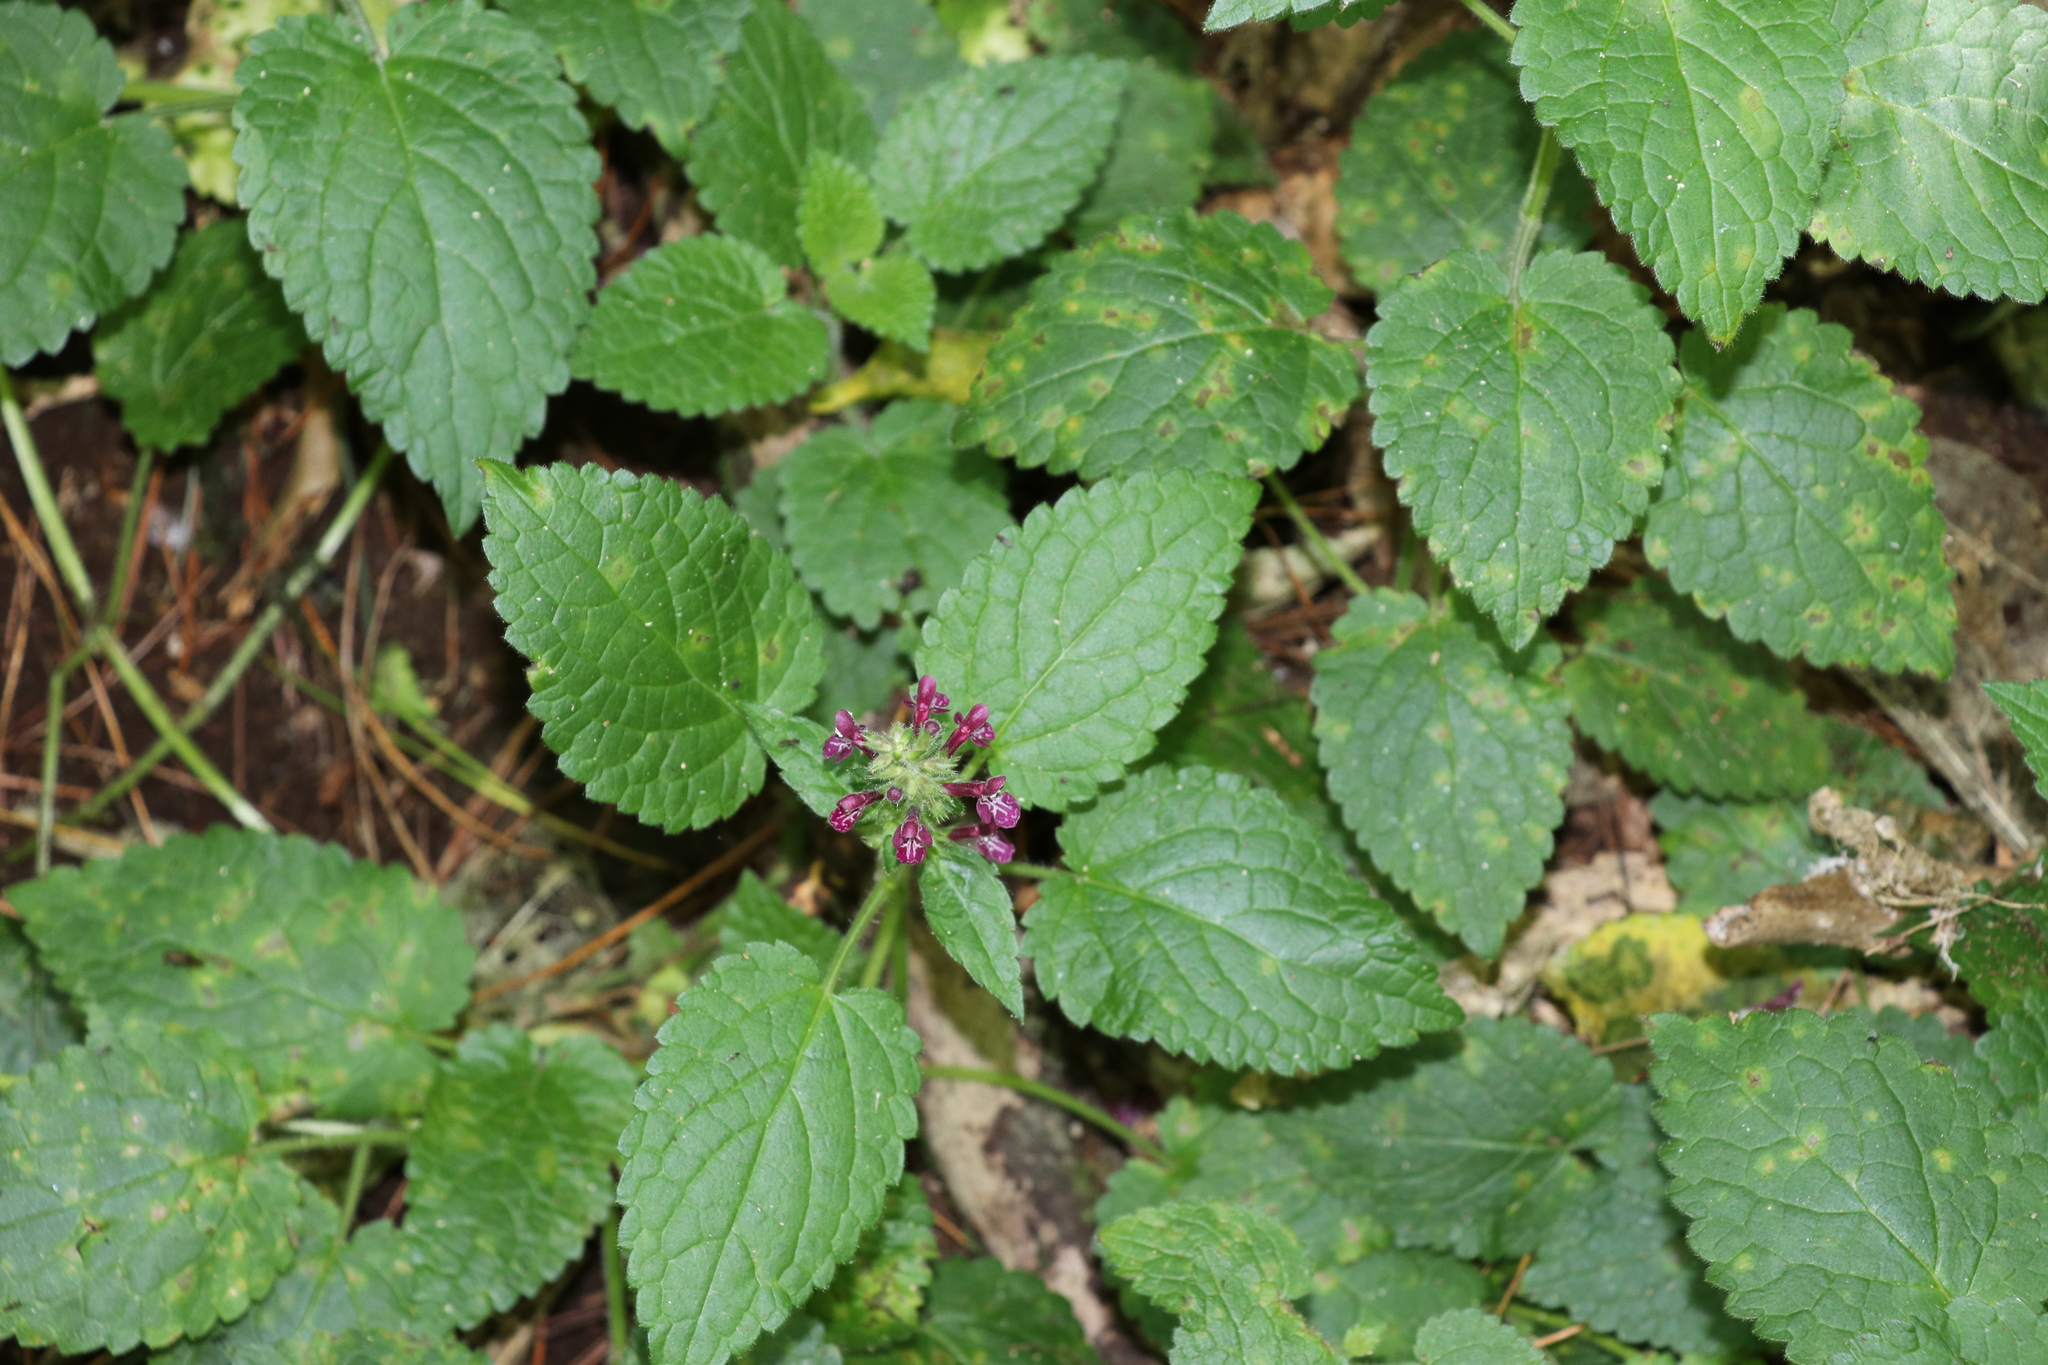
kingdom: Plantae
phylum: Tracheophyta
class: Magnoliopsida
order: Lamiales
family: Lamiaceae
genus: Stachys
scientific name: Stachys sylvatica
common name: Hedge woundwort
